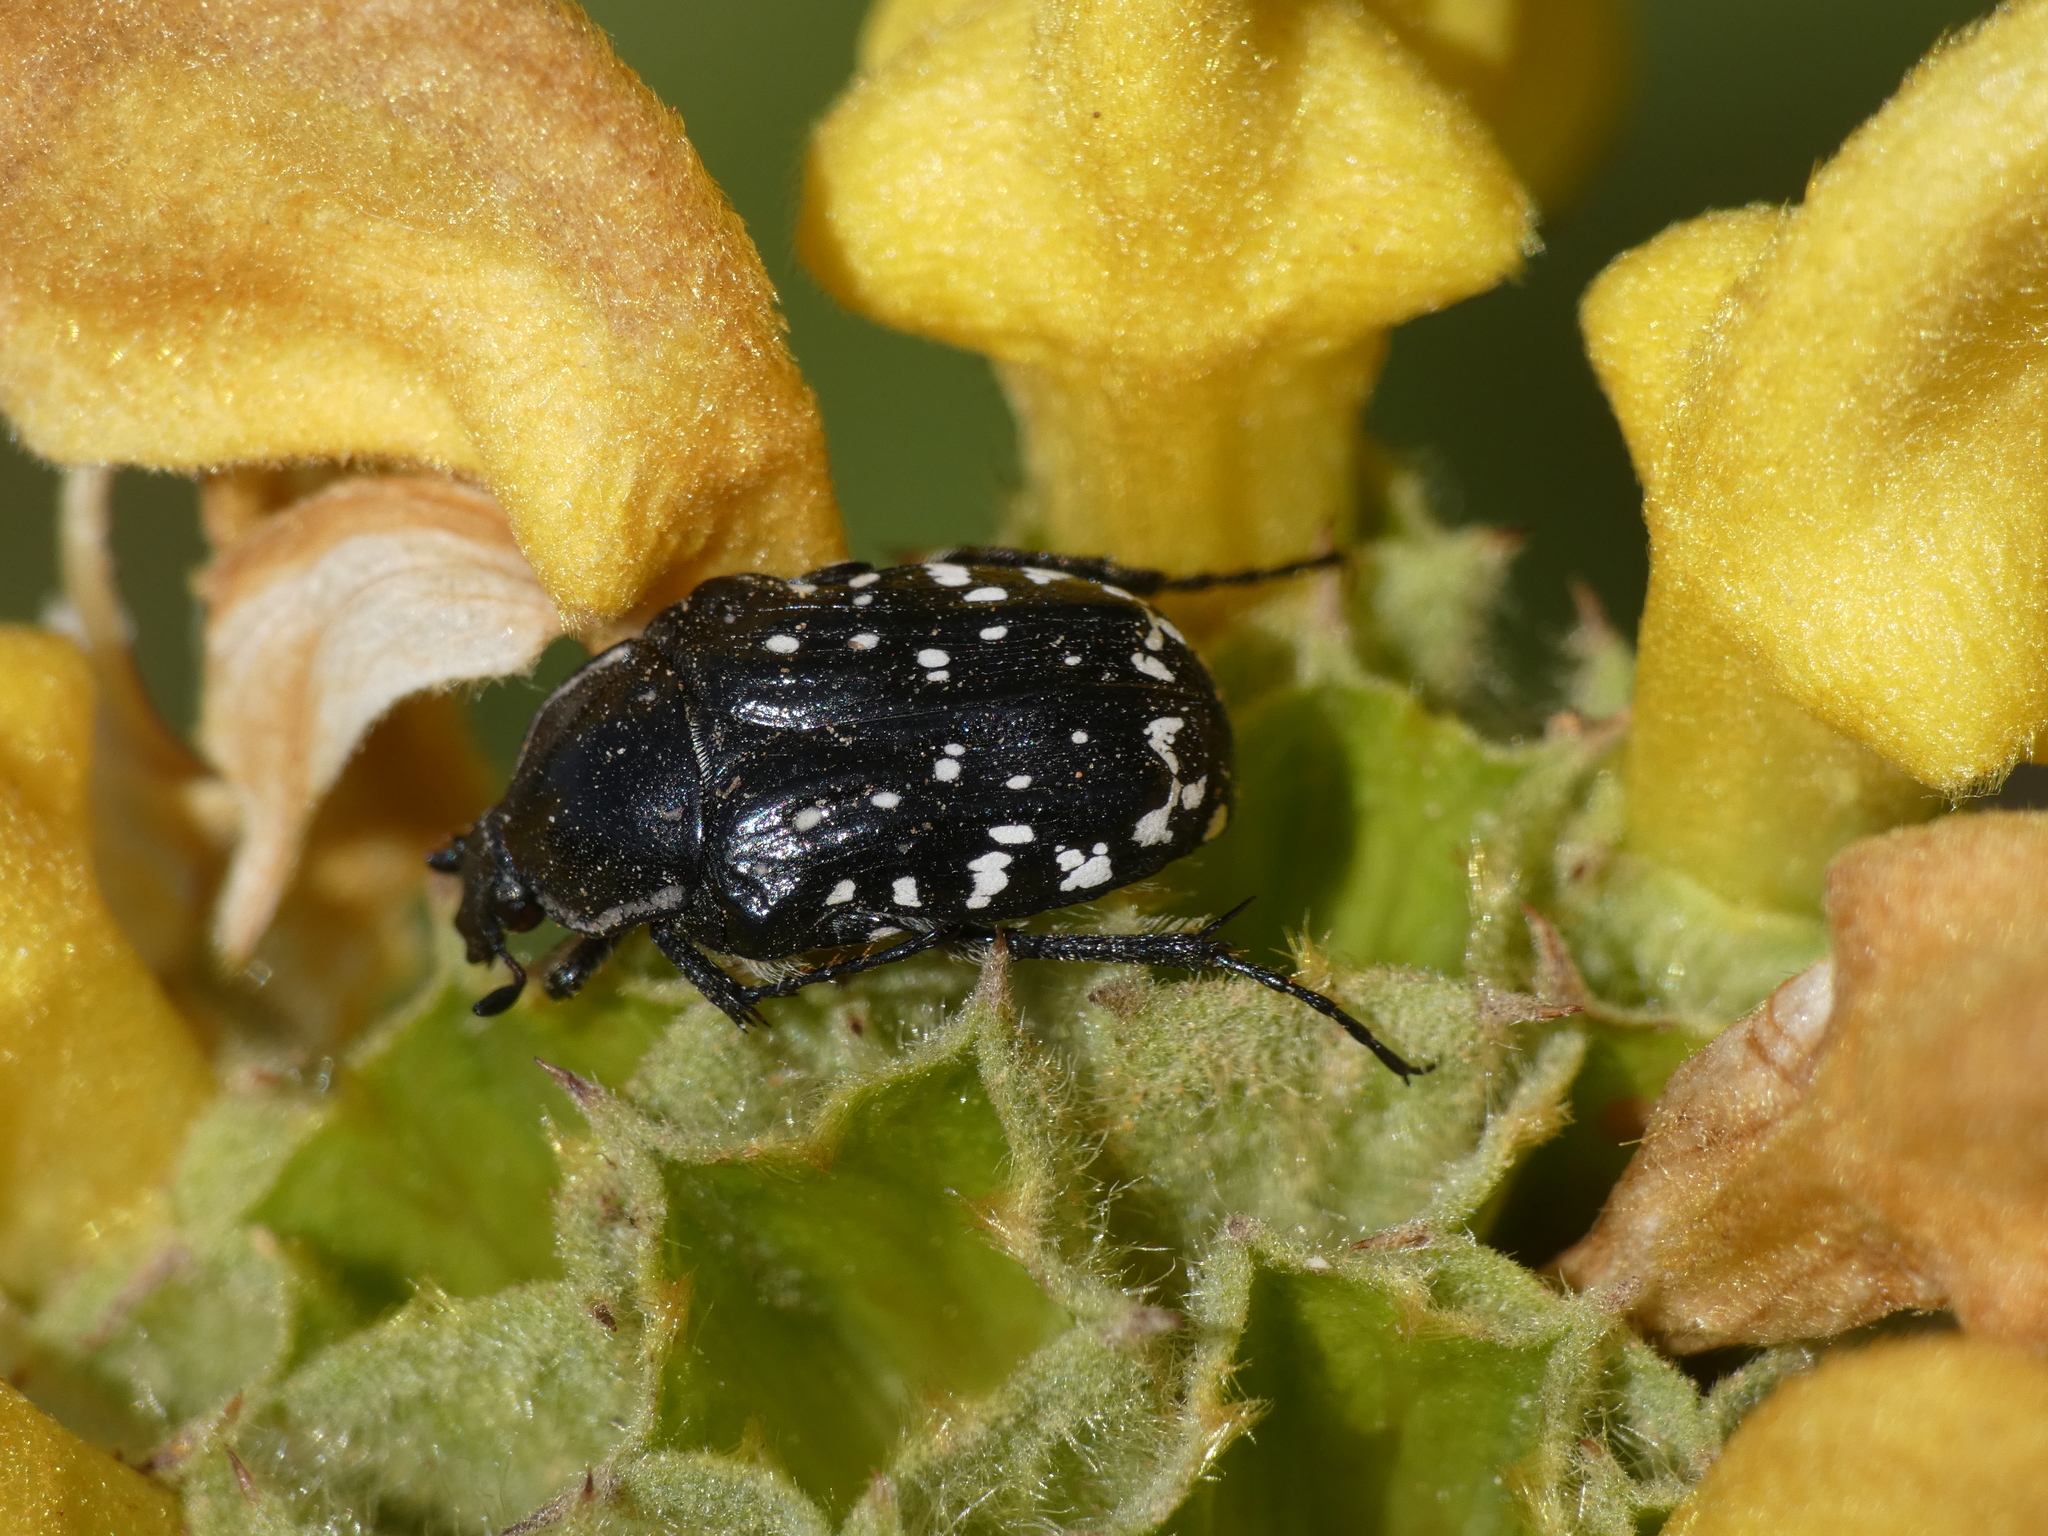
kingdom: Animalia
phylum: Arthropoda
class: Insecta
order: Coleoptera
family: Scarabaeidae
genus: Oxythyrea
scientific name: Oxythyrea cinctella
